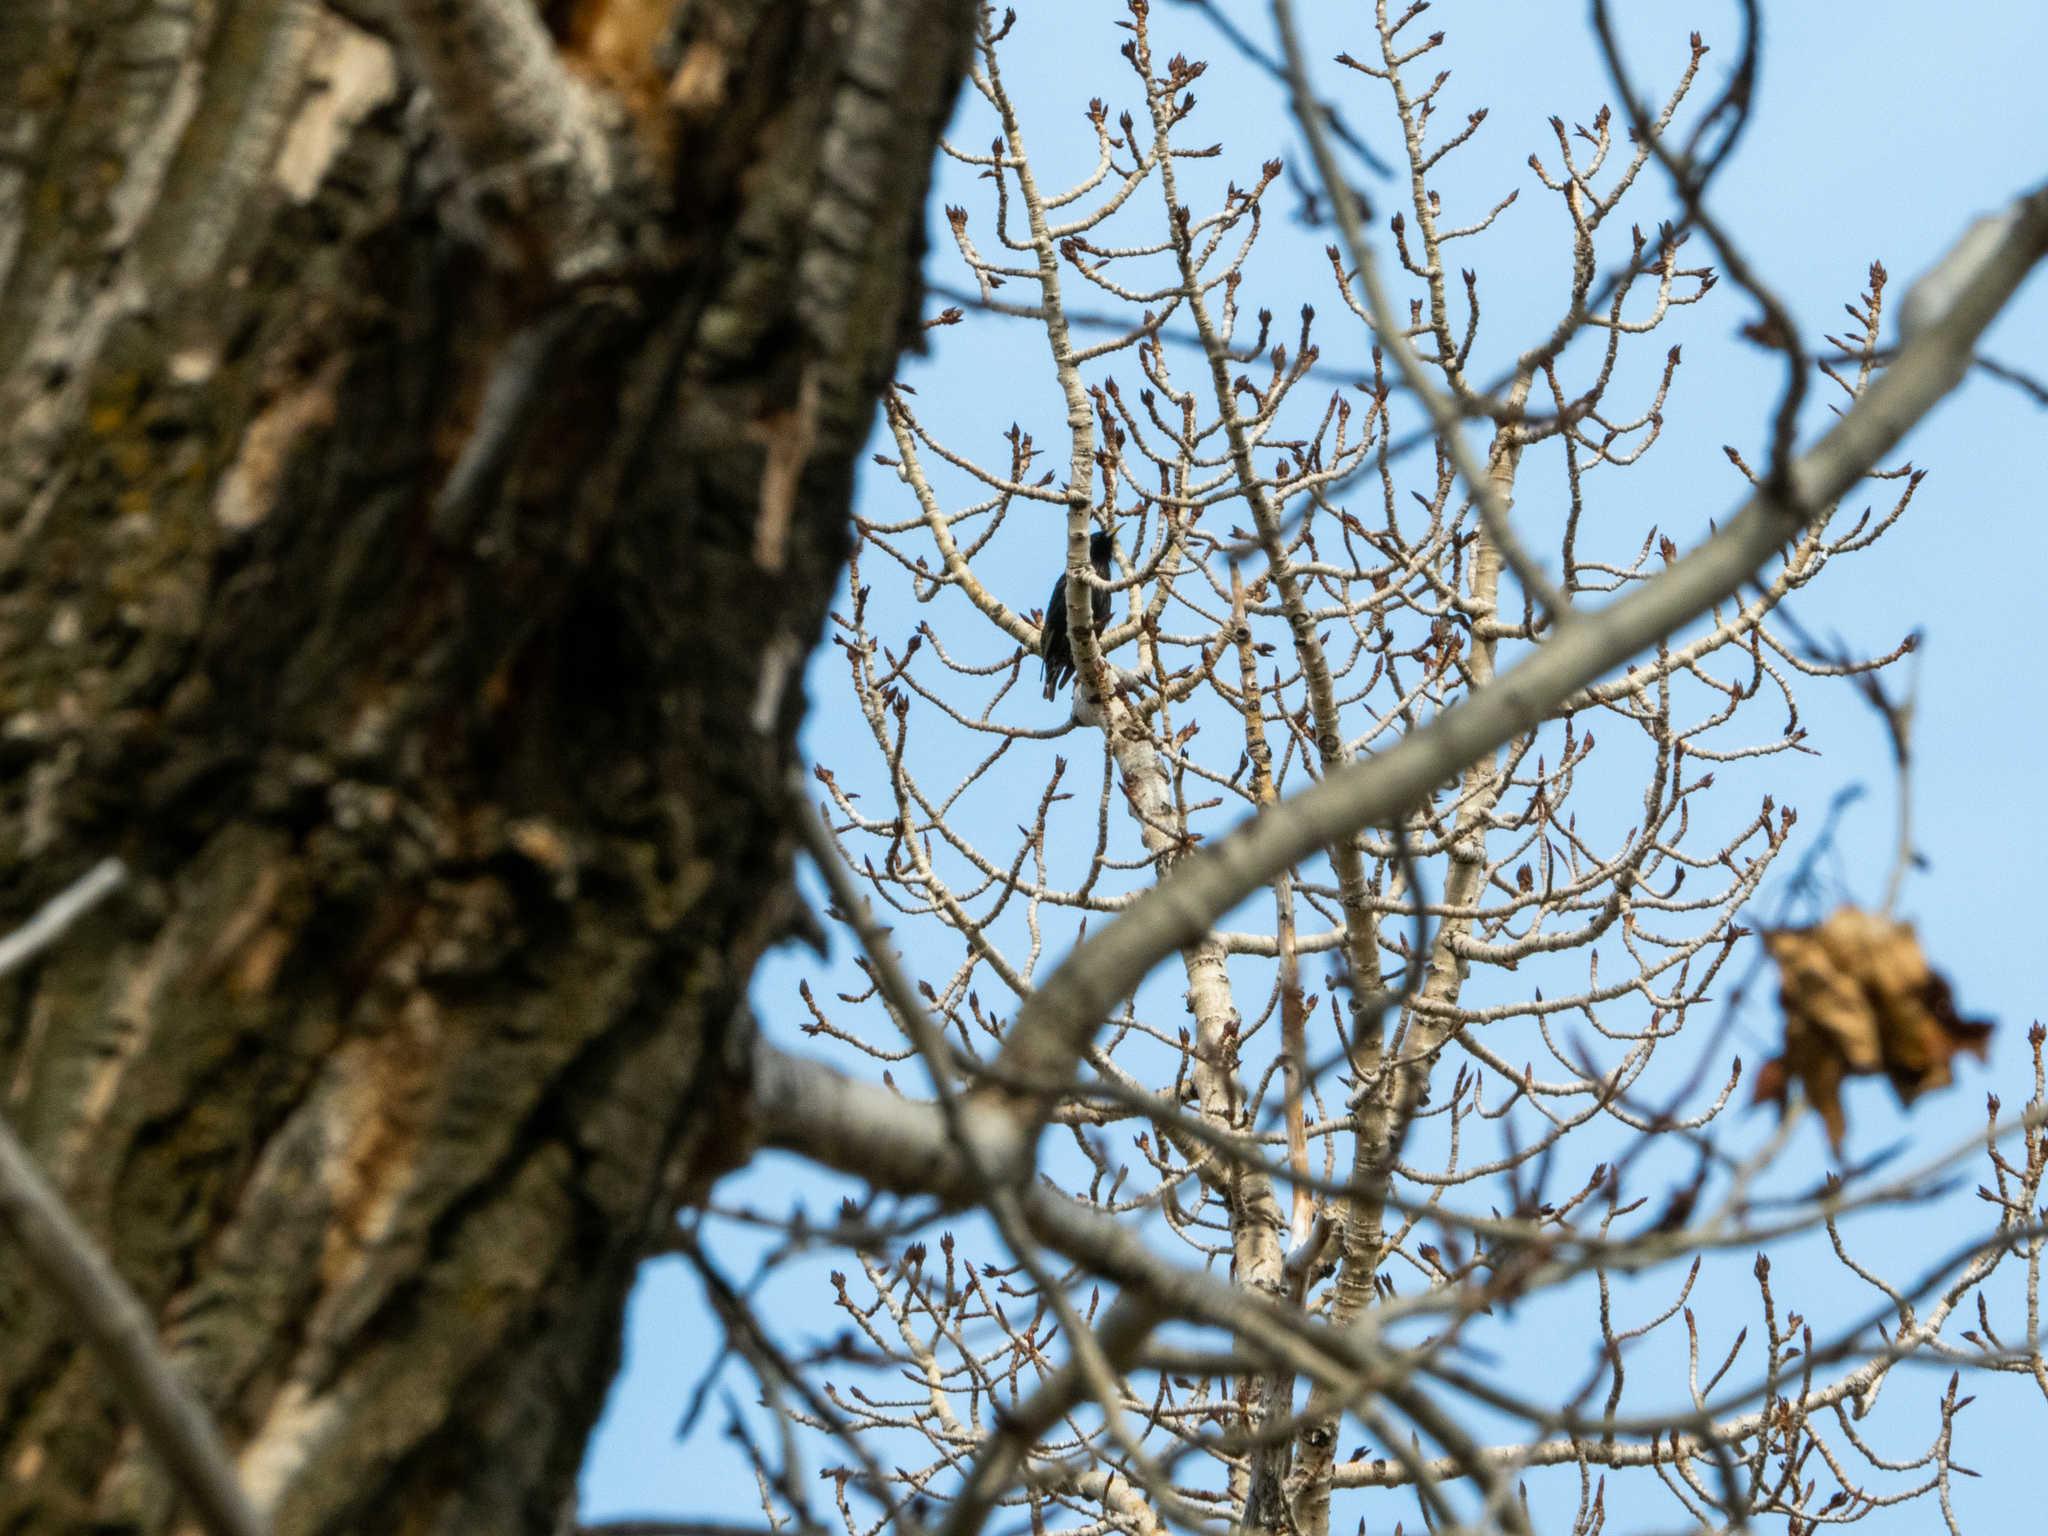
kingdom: Animalia
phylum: Chordata
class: Aves
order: Passeriformes
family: Sturnidae
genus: Sturnus
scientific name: Sturnus vulgaris
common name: Common starling
